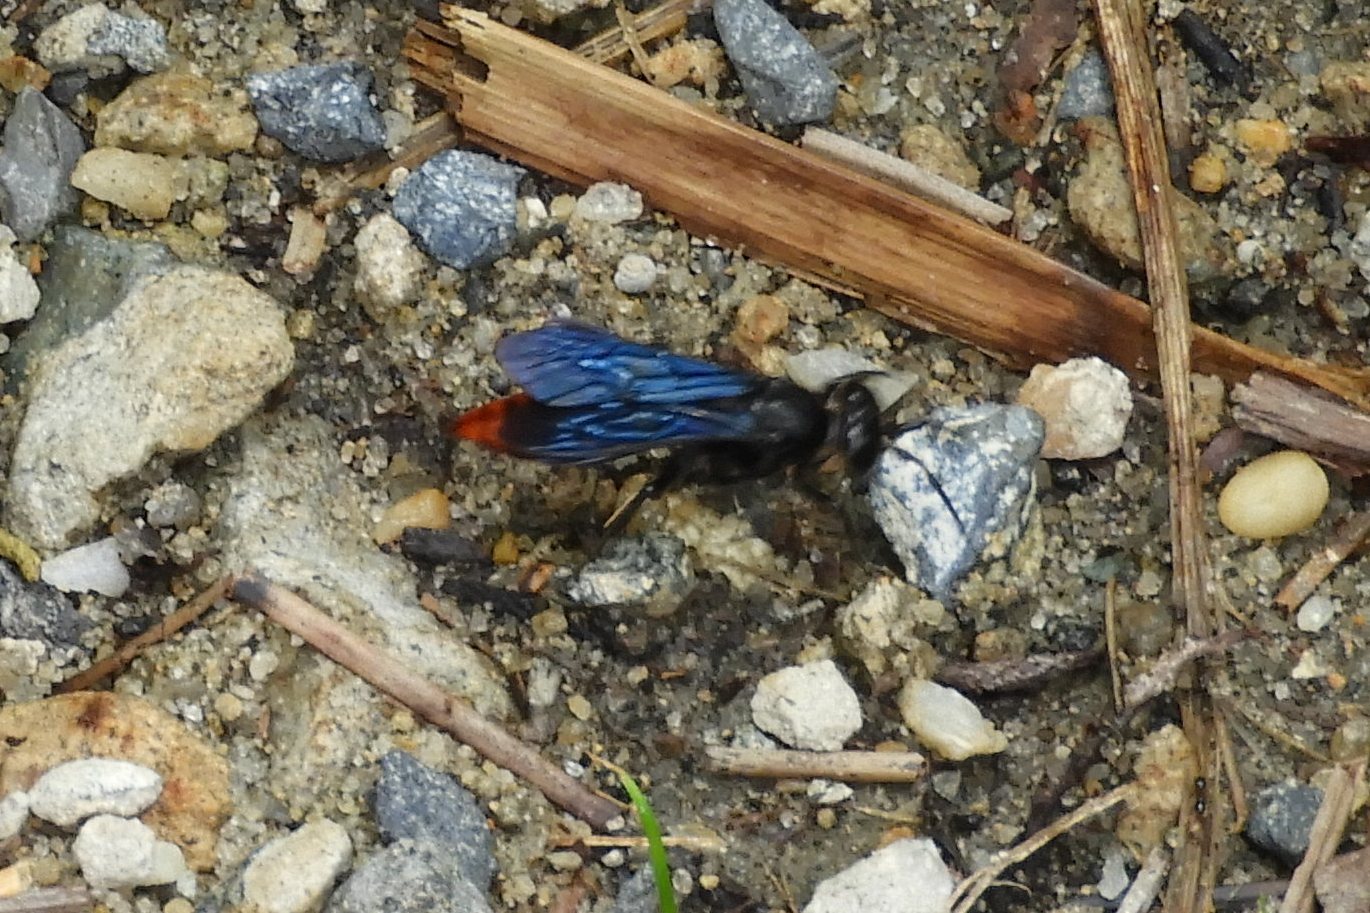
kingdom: Animalia
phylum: Arthropoda
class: Insecta
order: Hymenoptera
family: Crabronidae
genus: Larra
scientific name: Larra analis
